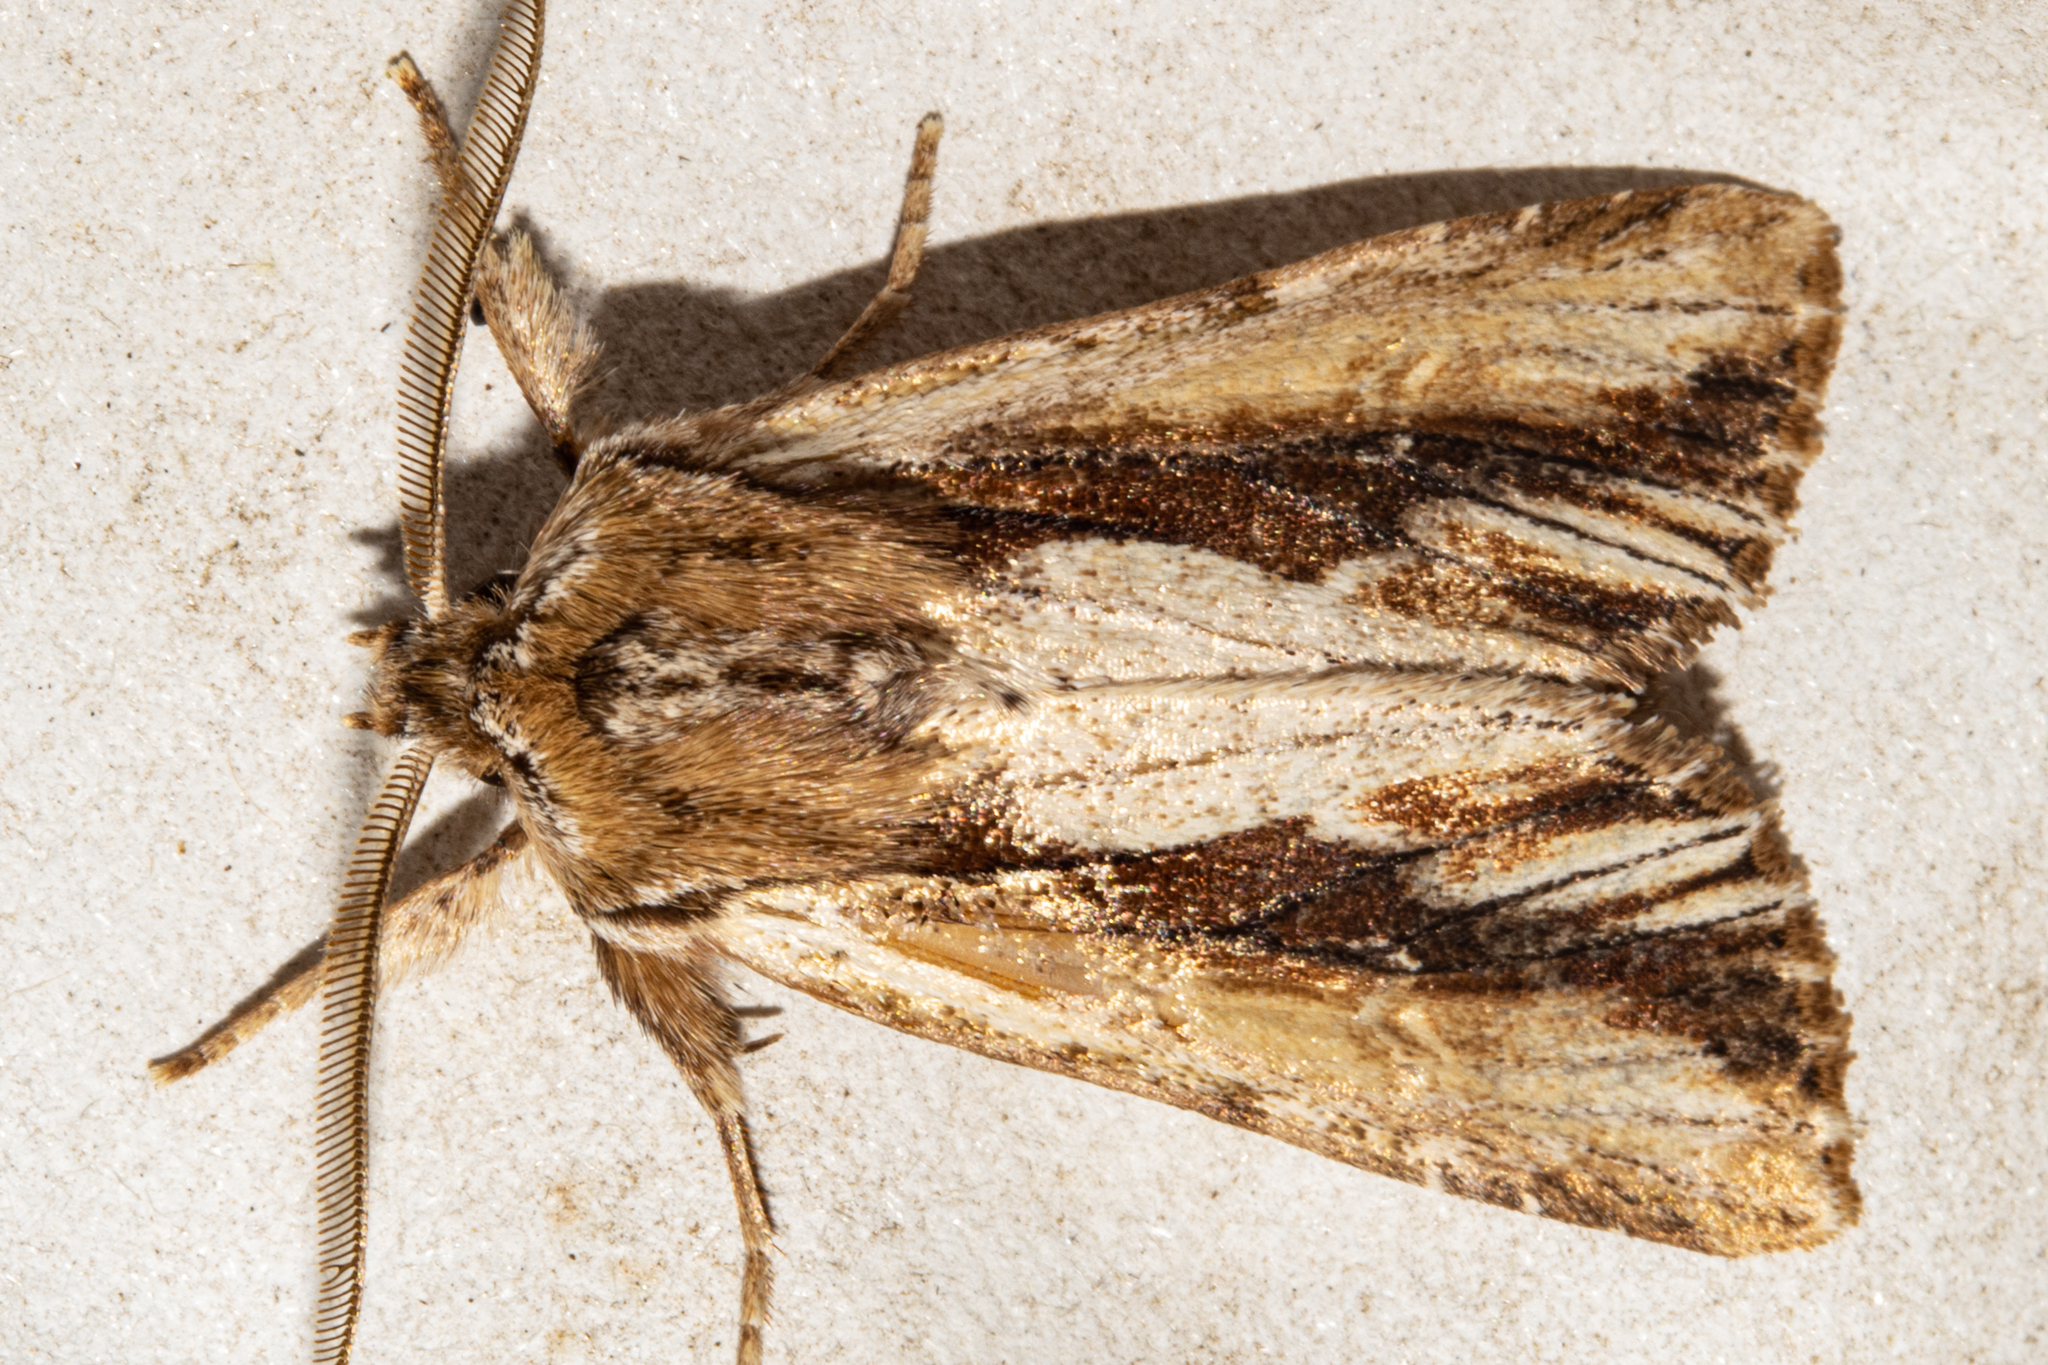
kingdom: Animalia
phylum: Arthropoda
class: Insecta
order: Lepidoptera
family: Noctuidae
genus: Ichneutica
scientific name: Ichneutica
